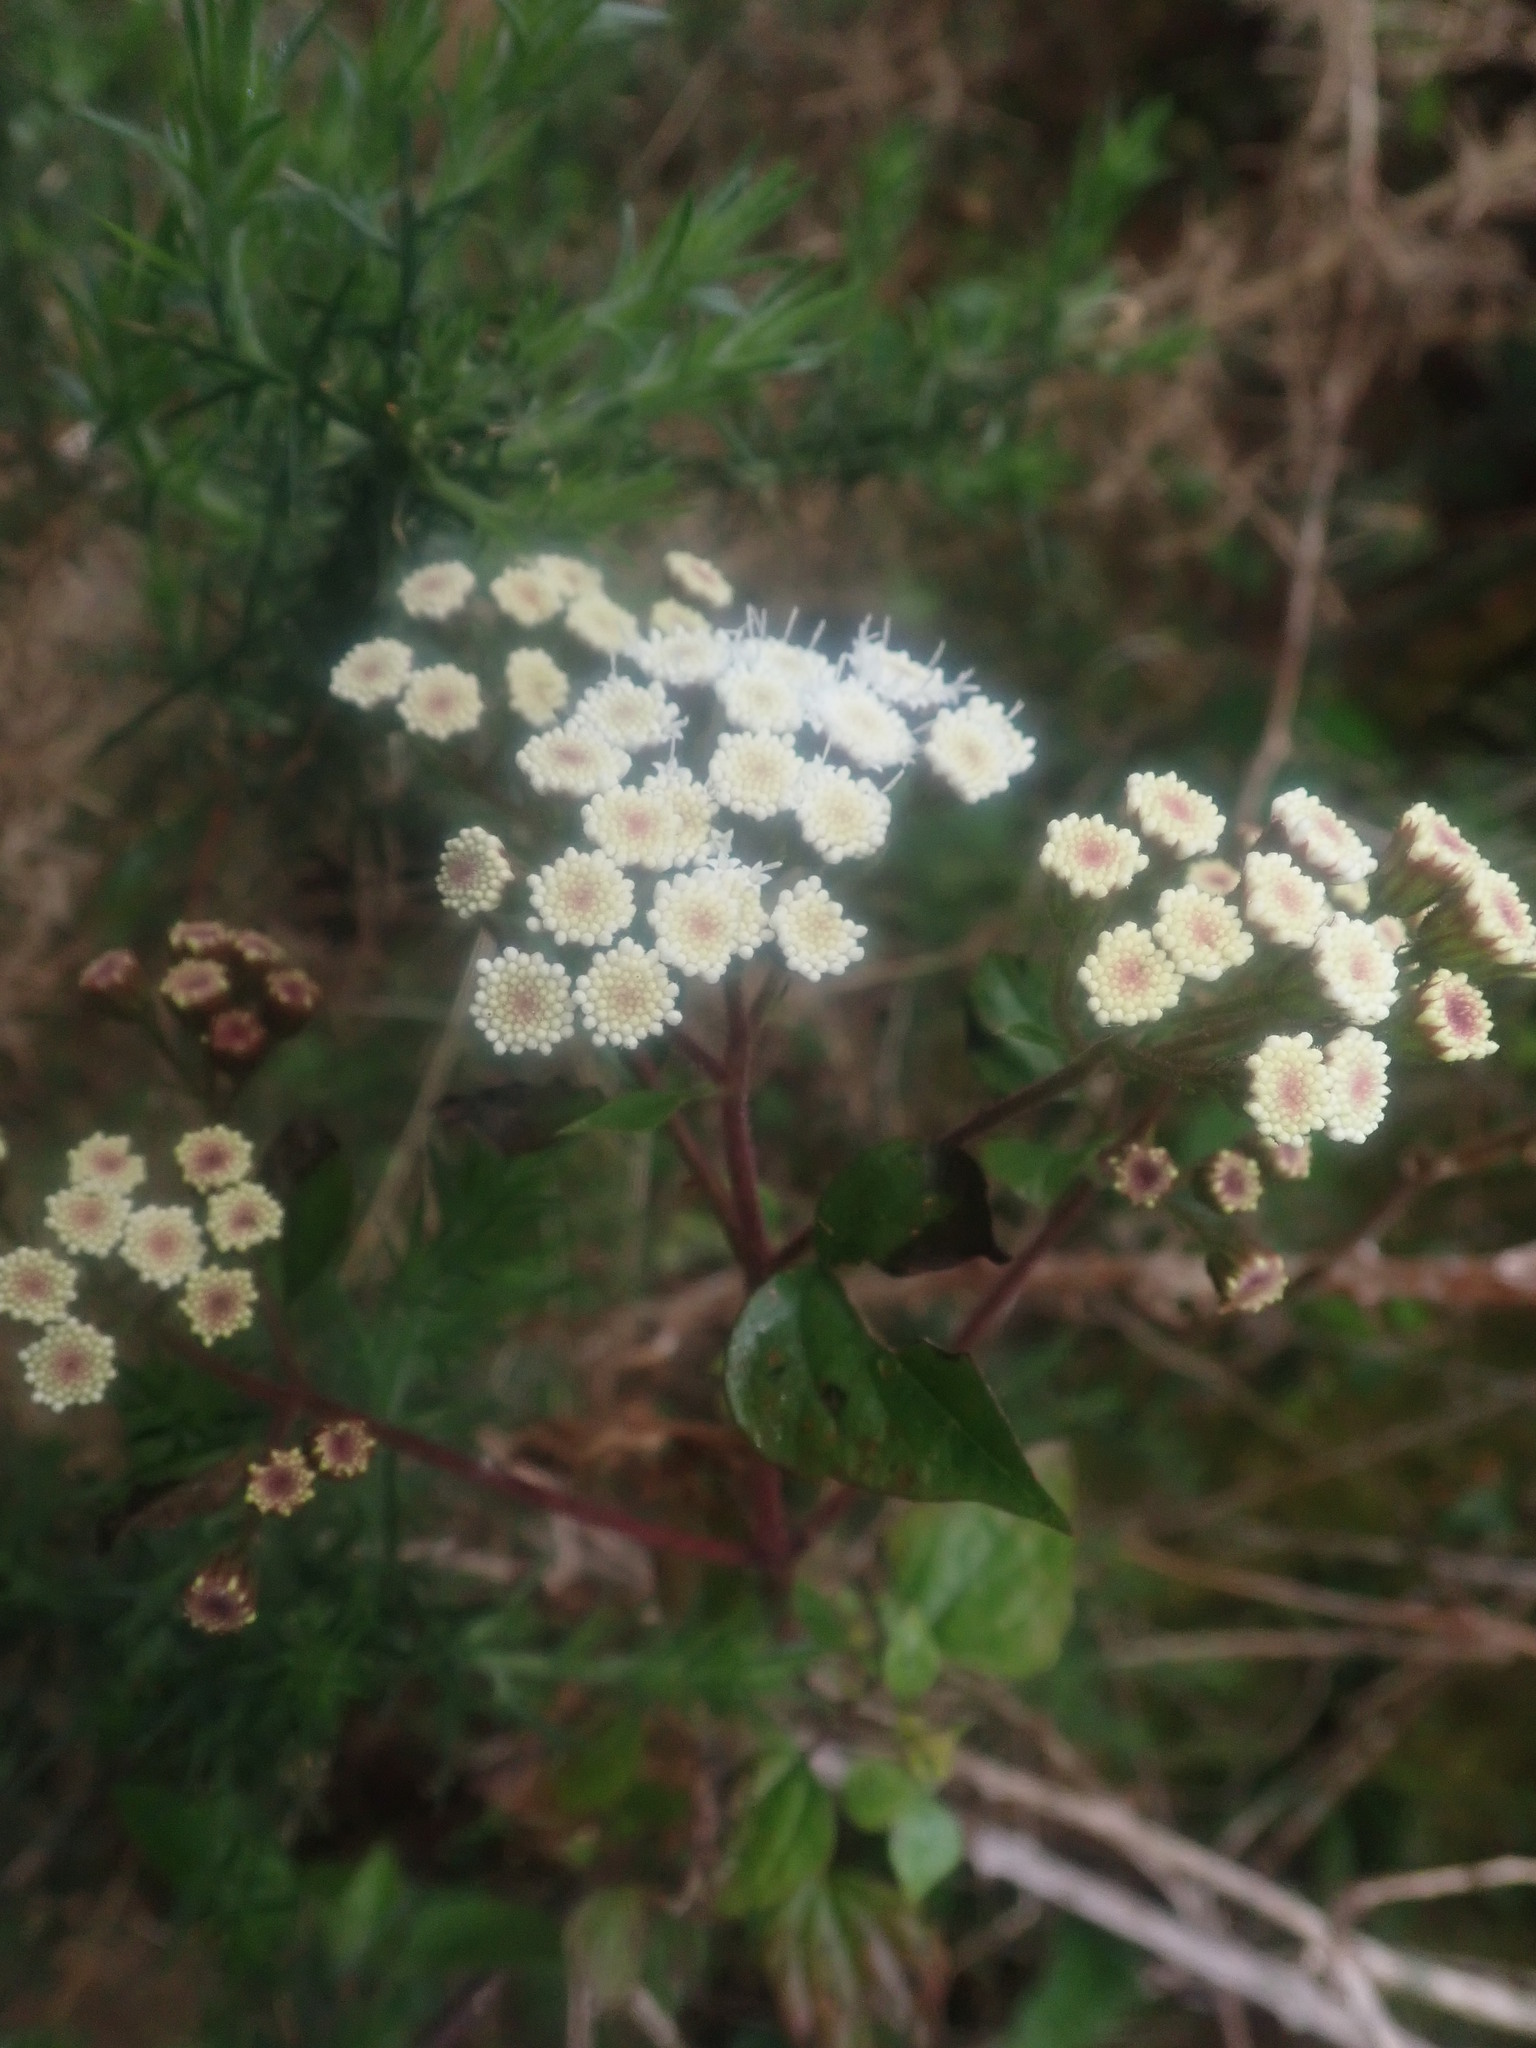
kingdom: Plantae
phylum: Tracheophyta
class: Magnoliopsida
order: Asterales
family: Asteraceae
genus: Ageratina
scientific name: Ageratina adenophora
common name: Sticky snakeroot
